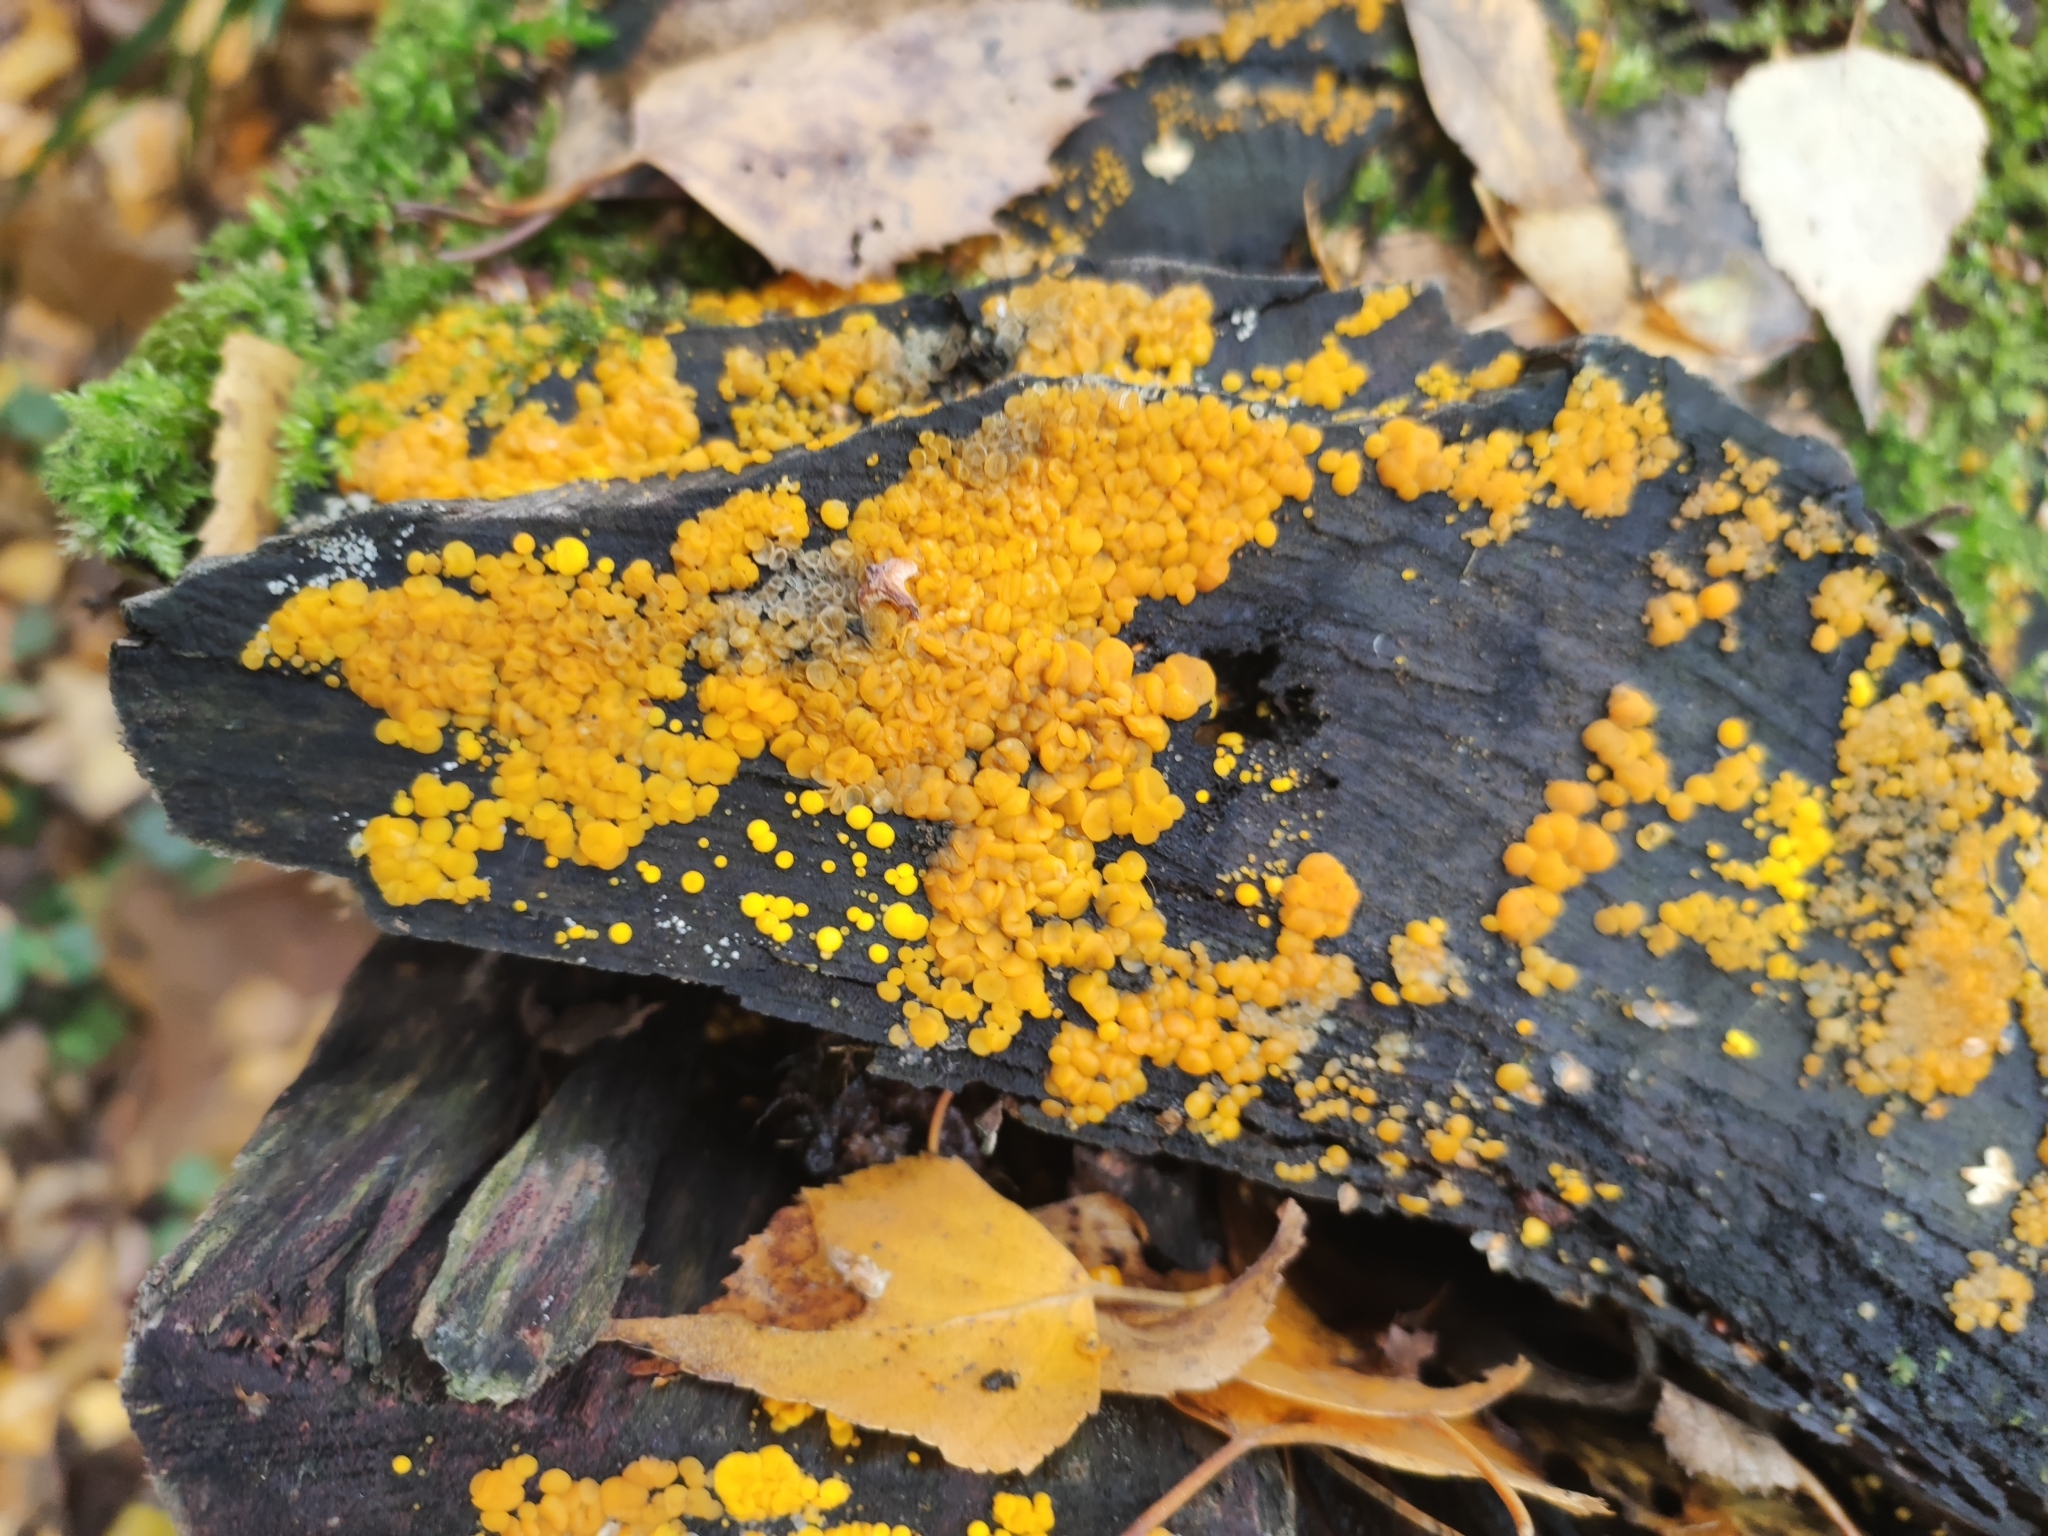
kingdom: Fungi
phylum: Ascomycota
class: Leotiomycetes
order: Helotiales
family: Pezizellaceae
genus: Calycina
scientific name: Calycina citrina
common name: Yellow fairy cups
